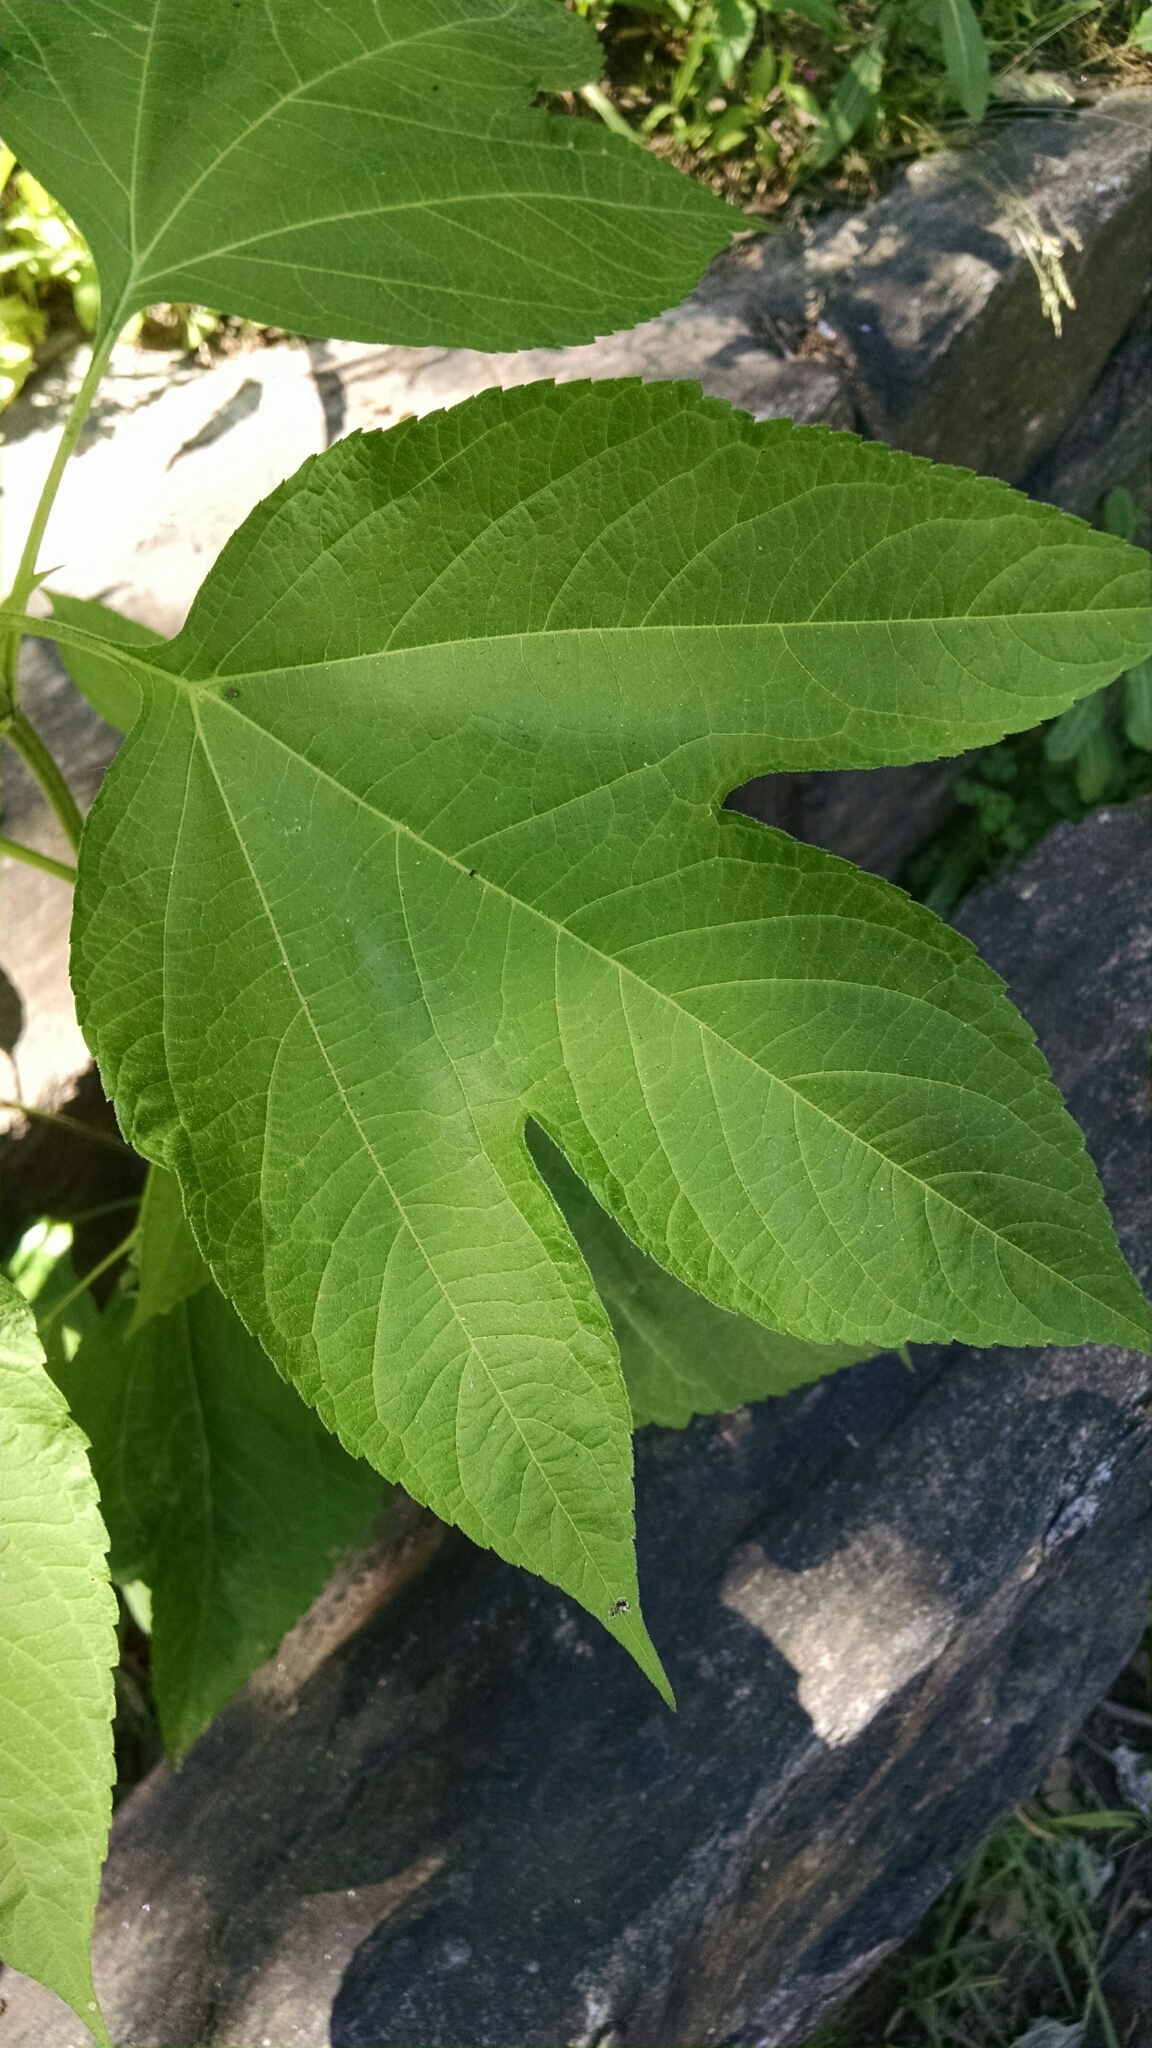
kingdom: Plantae
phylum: Tracheophyta
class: Magnoliopsida
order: Asterales
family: Asteraceae
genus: Ambrosia
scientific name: Ambrosia trifida
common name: Giant ragweed
